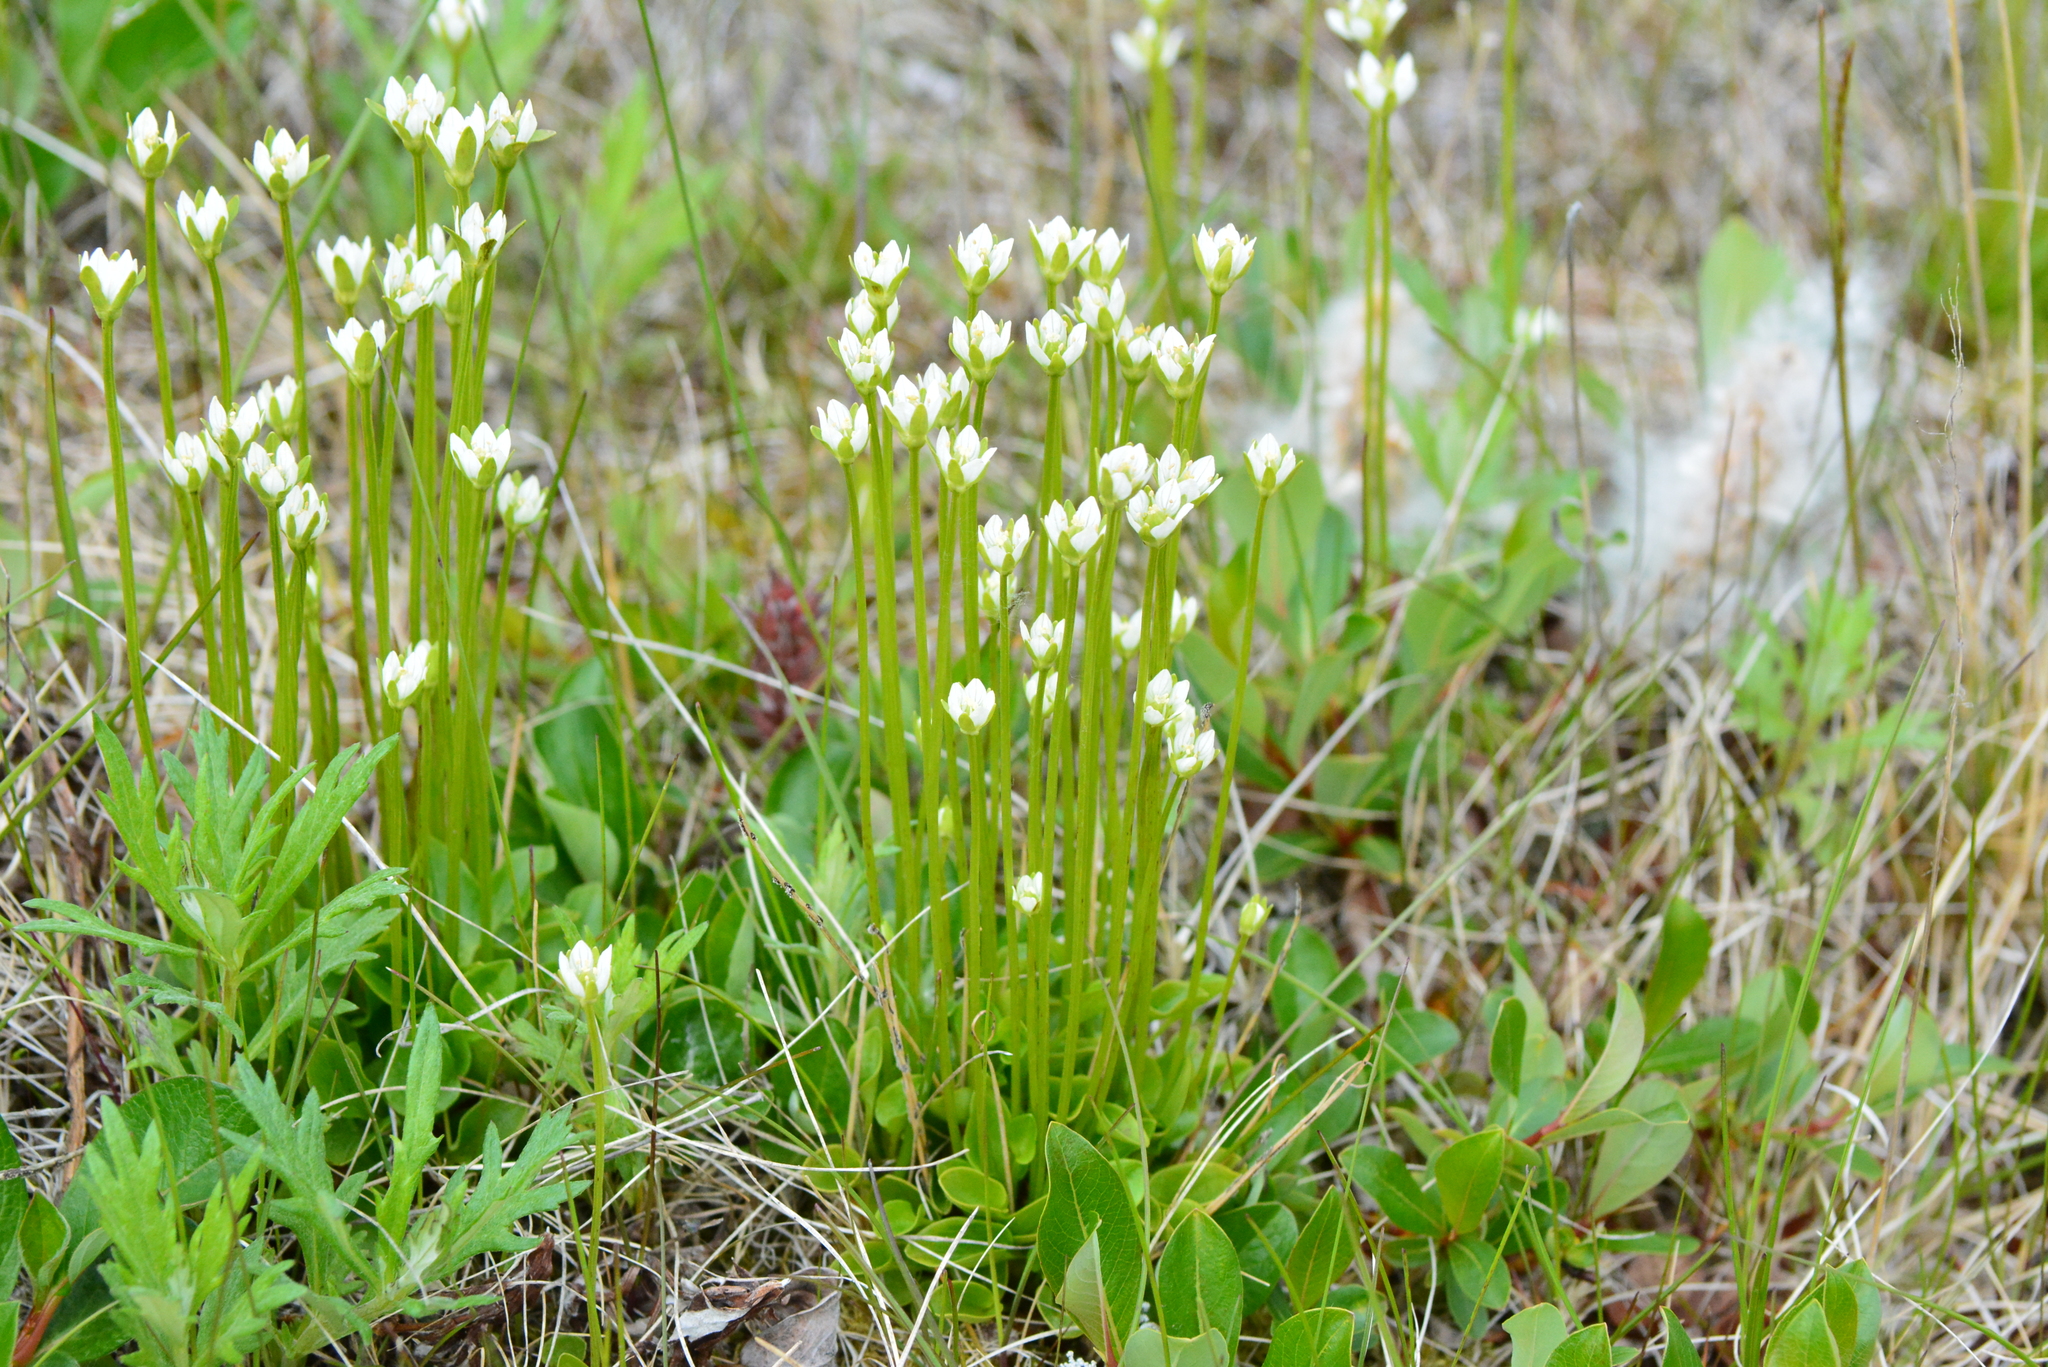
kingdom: Plantae
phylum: Tracheophyta
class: Magnoliopsida
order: Celastrales
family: Parnassiaceae
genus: Parnassia
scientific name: Parnassia kotzebuei
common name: Kotzebue's grass-of-parnassus
